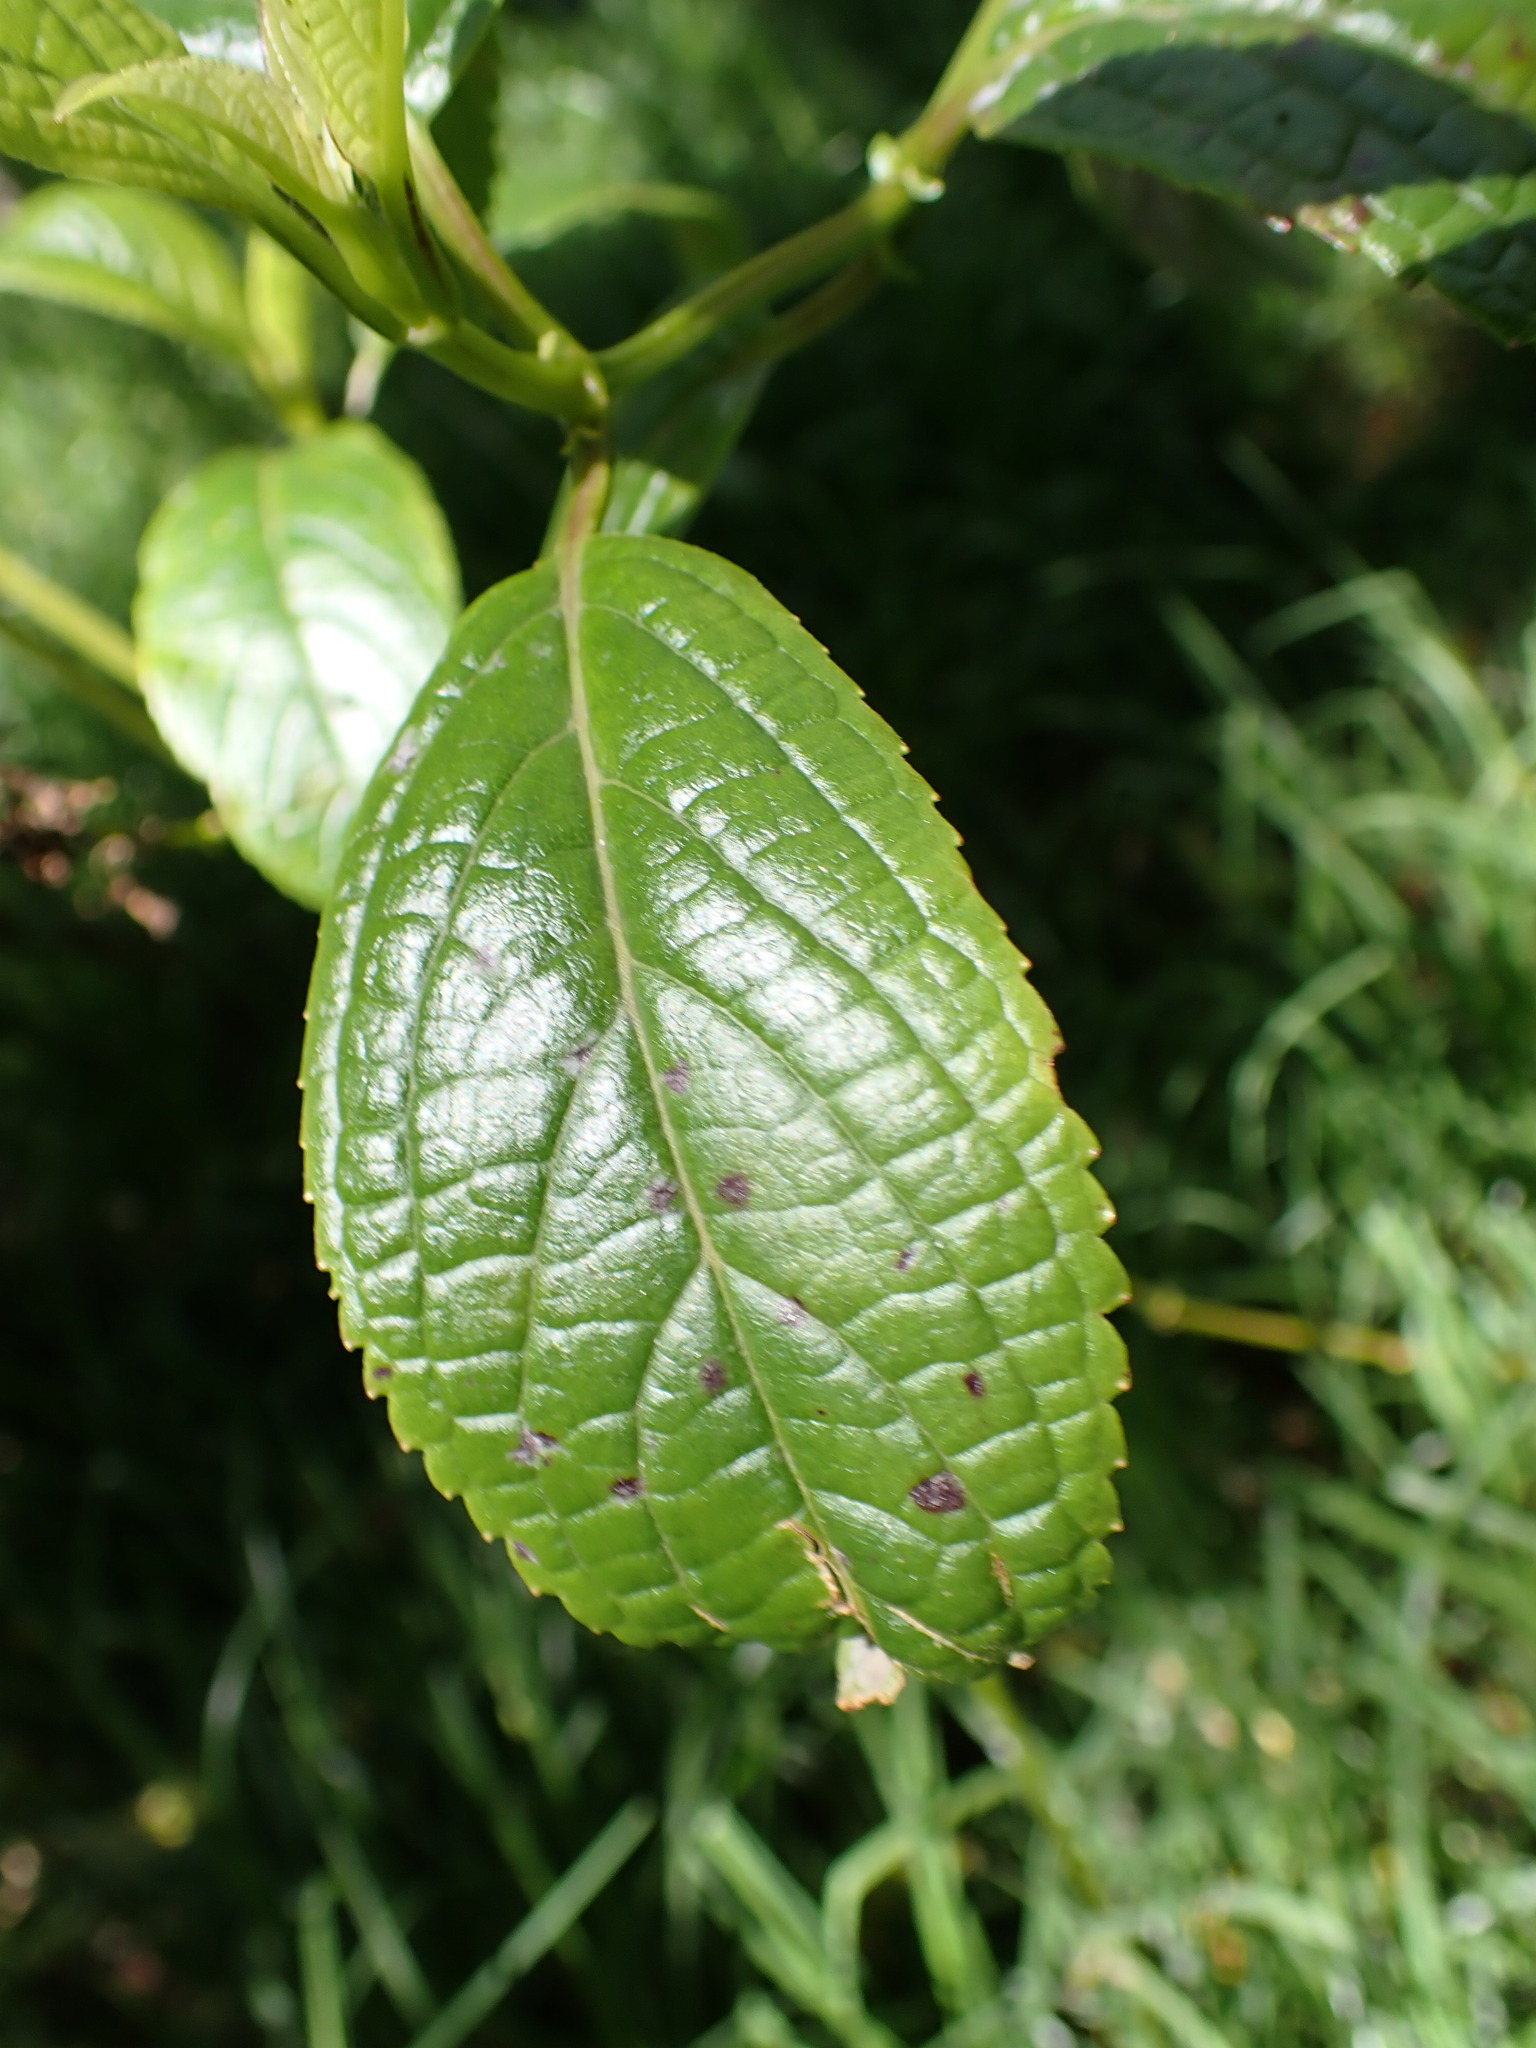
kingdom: Plantae
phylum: Tracheophyta
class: Magnoliopsida
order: Cornales
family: Hydrangeaceae
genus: Hydrangea
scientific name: Hydrangea arguta
